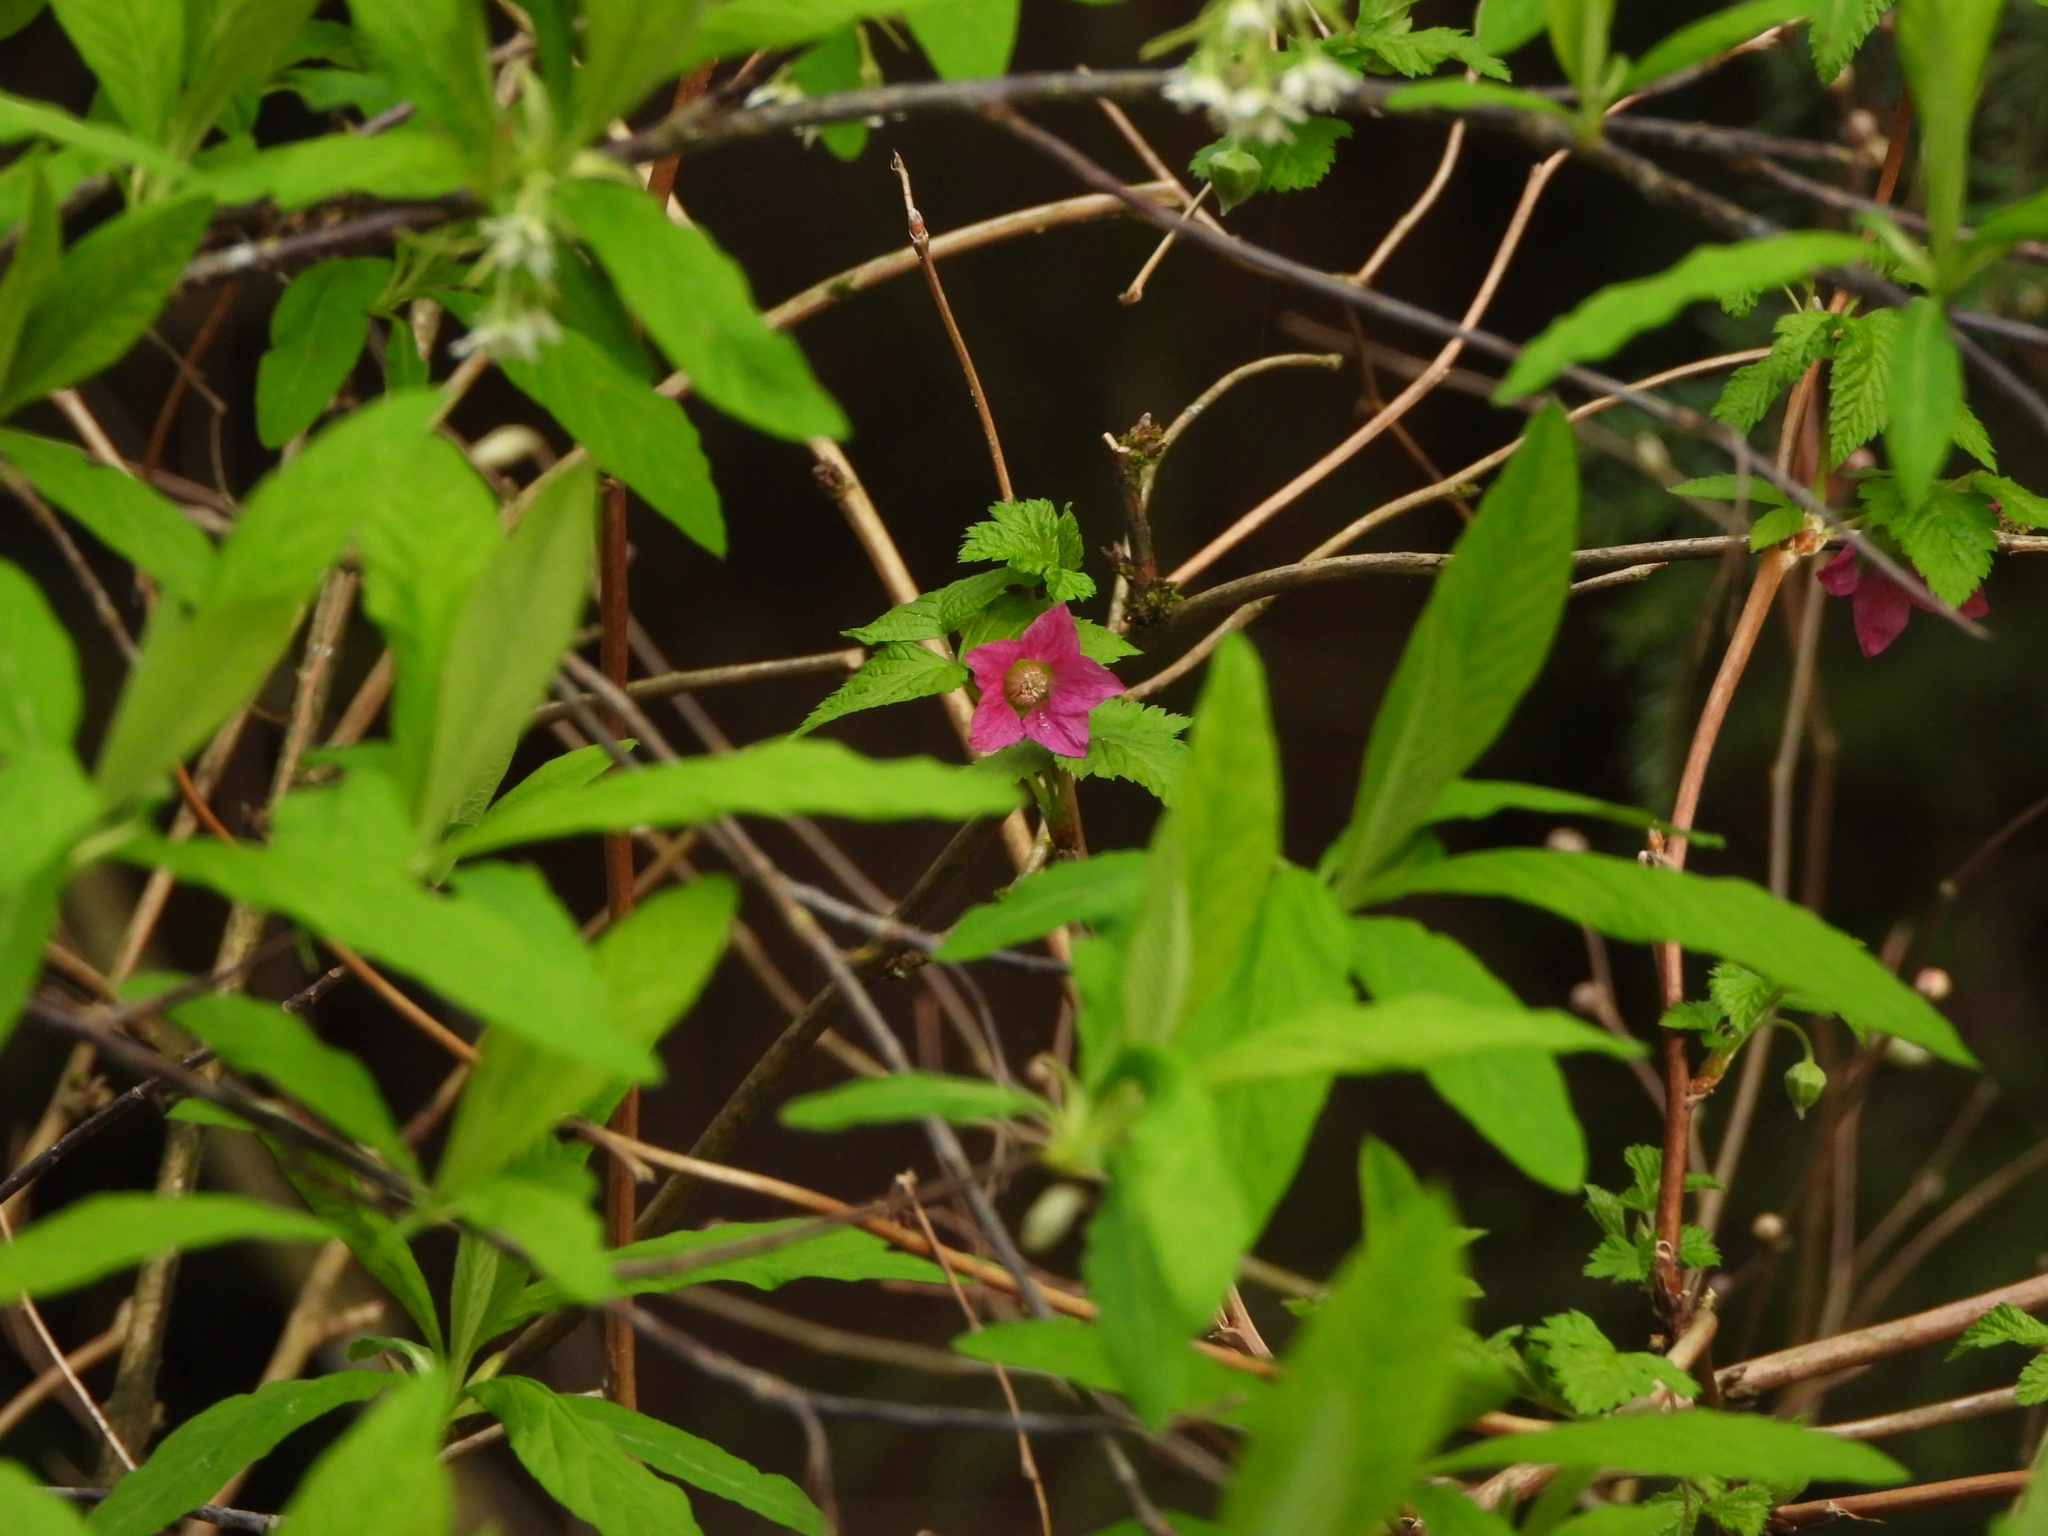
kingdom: Plantae
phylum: Tracheophyta
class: Magnoliopsida
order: Rosales
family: Rosaceae
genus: Rubus
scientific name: Rubus spectabilis
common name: Salmonberry
